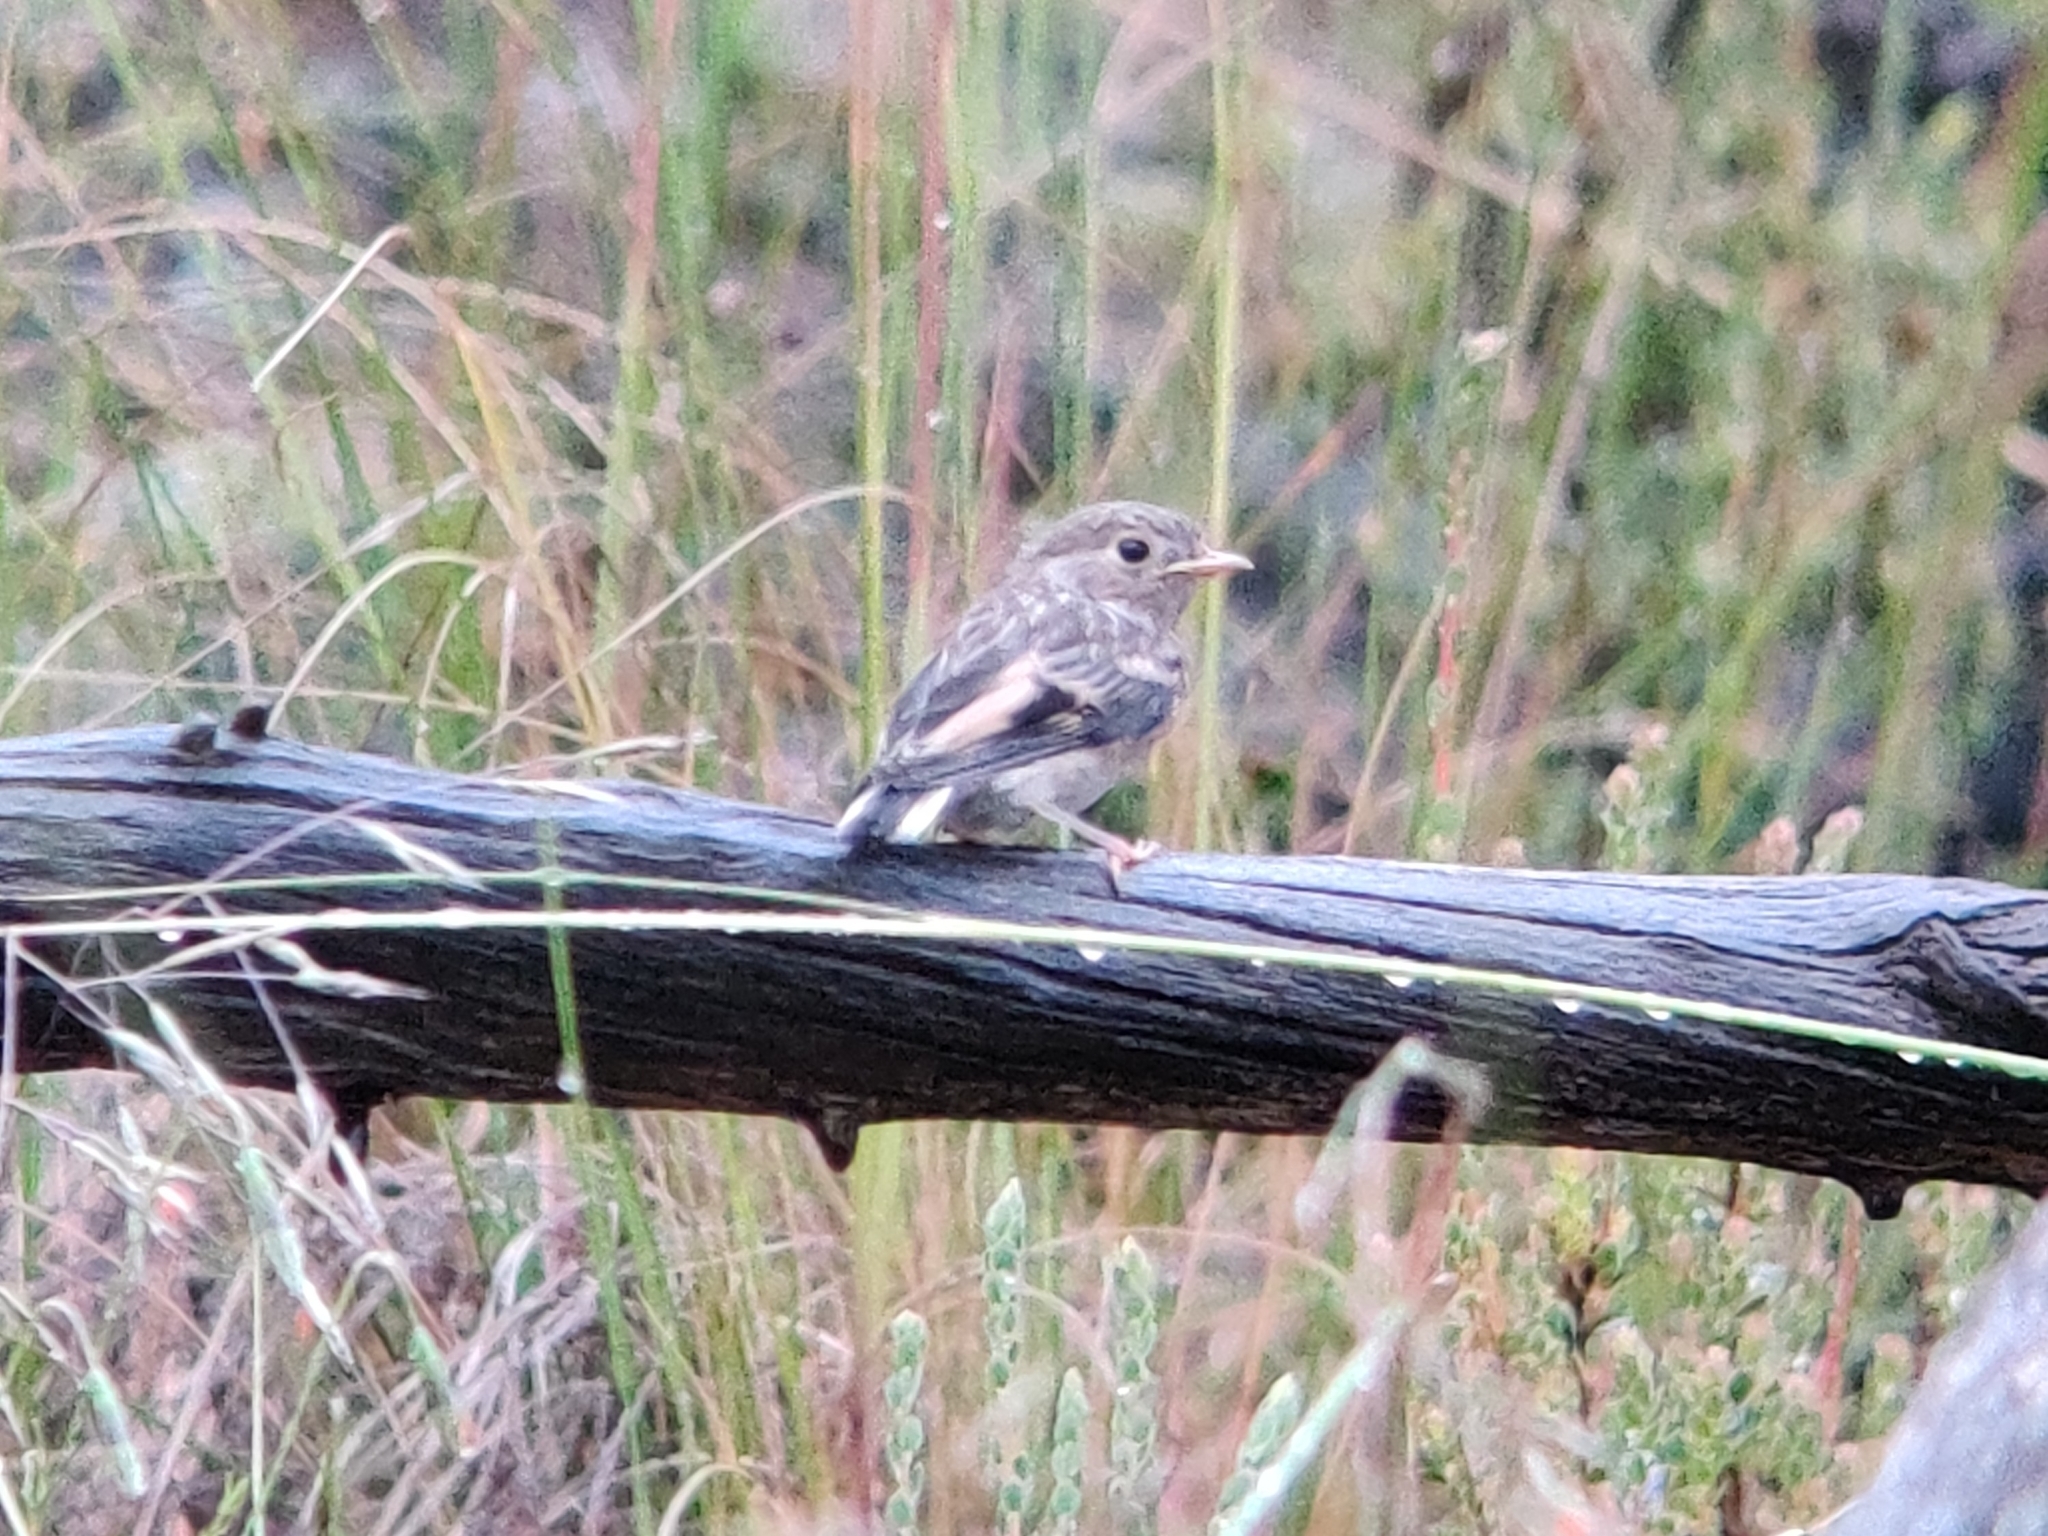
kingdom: Animalia
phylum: Chordata
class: Aves
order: Passeriformes
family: Petroicidae
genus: Petroica
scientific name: Petroica boodang
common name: Scarlet robin
